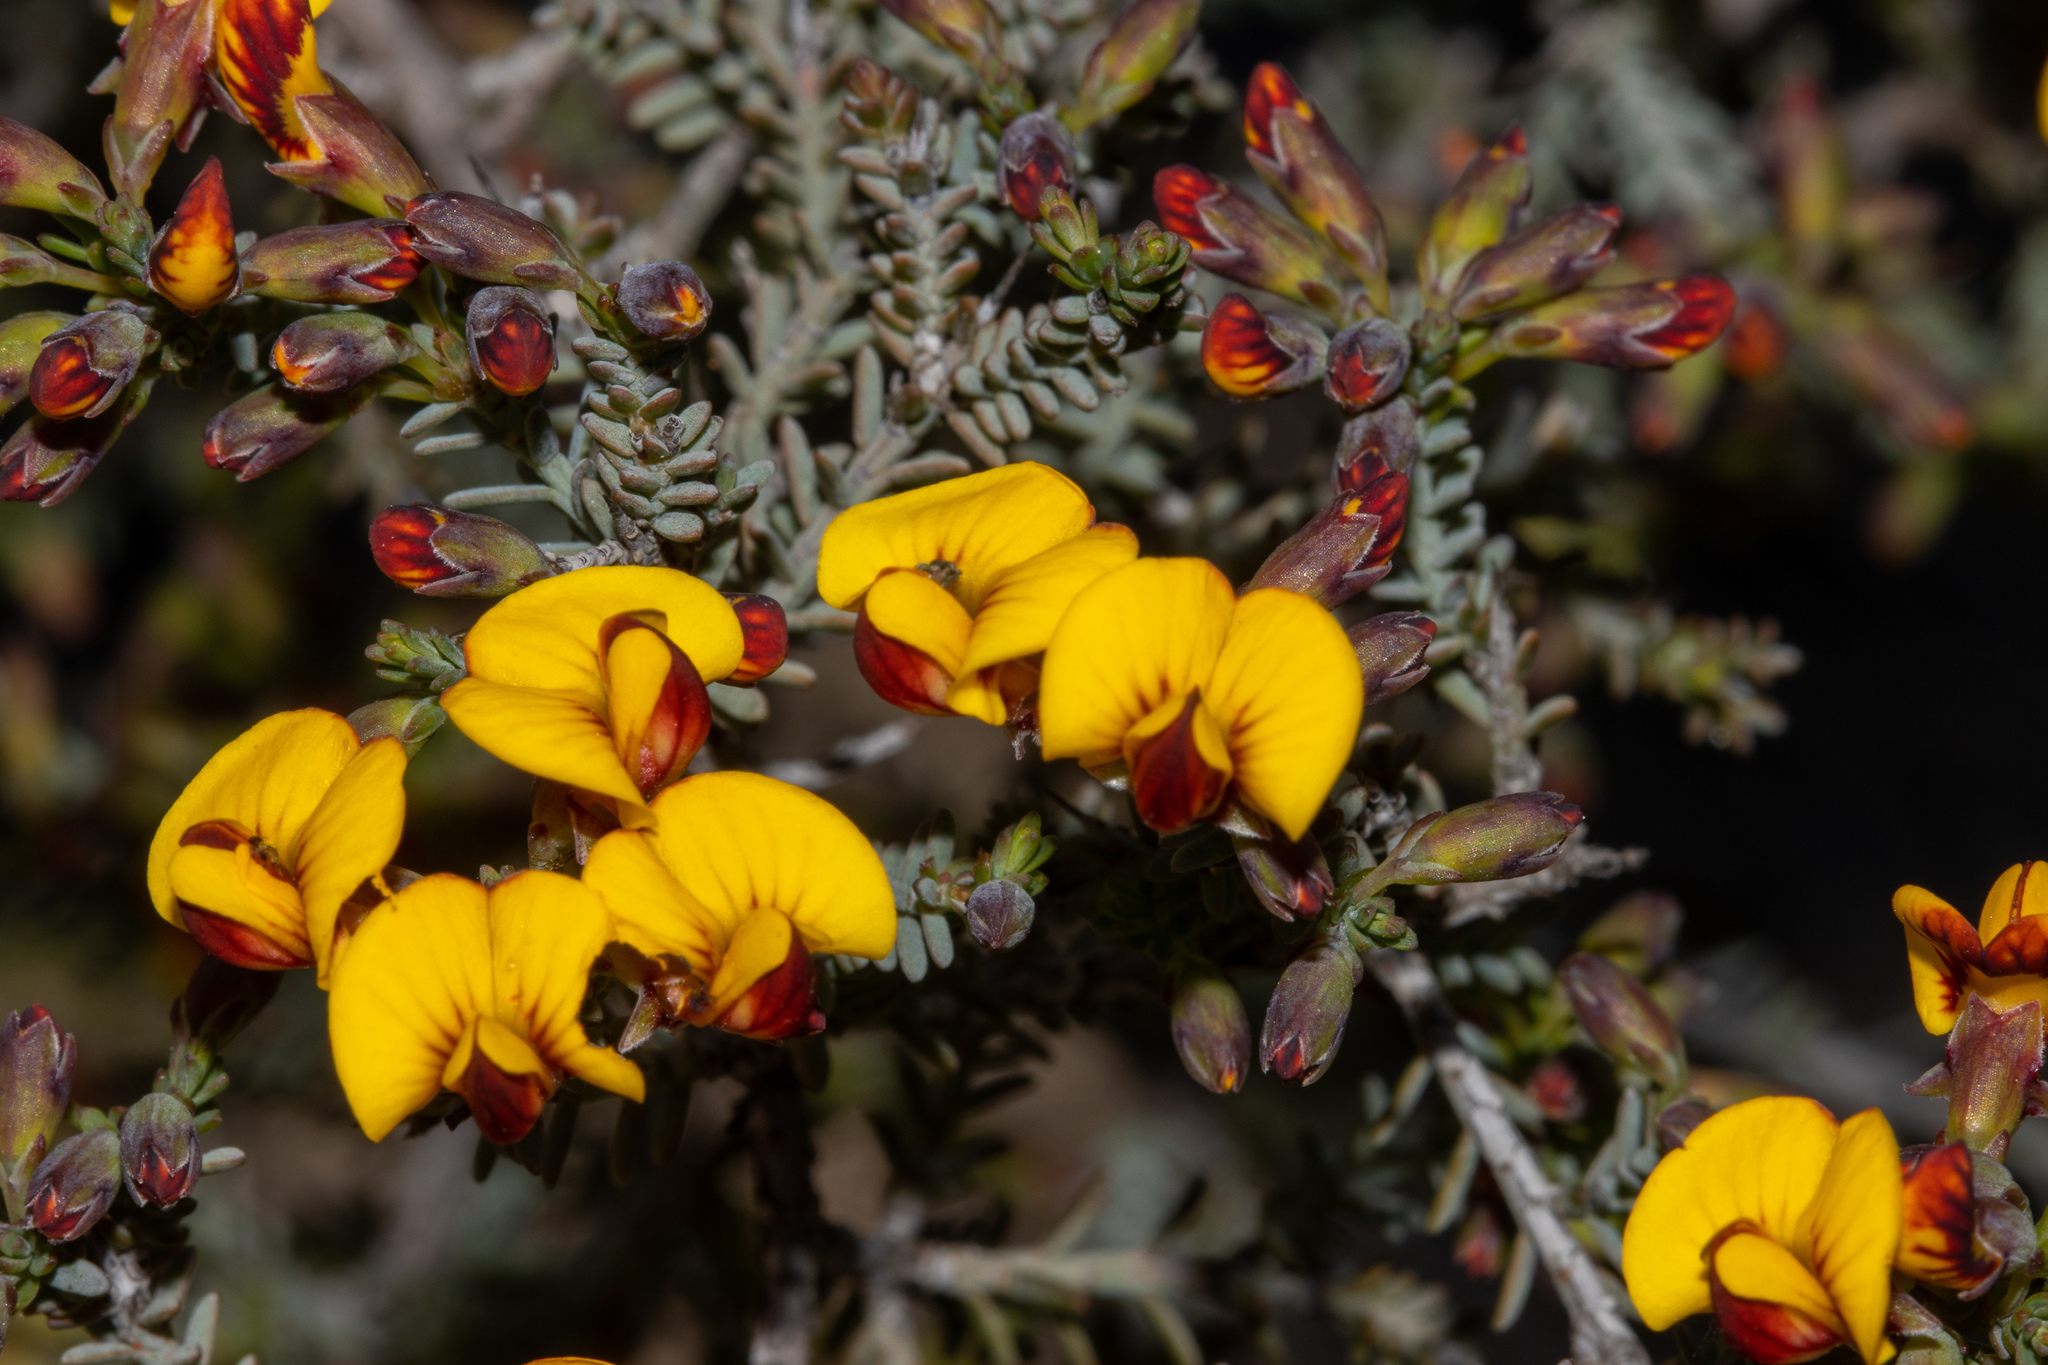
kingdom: Plantae
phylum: Tracheophyta
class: Magnoliopsida
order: Fabales
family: Fabaceae
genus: Eutaxia
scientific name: Eutaxia microphylla
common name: Mallee bush-pea
